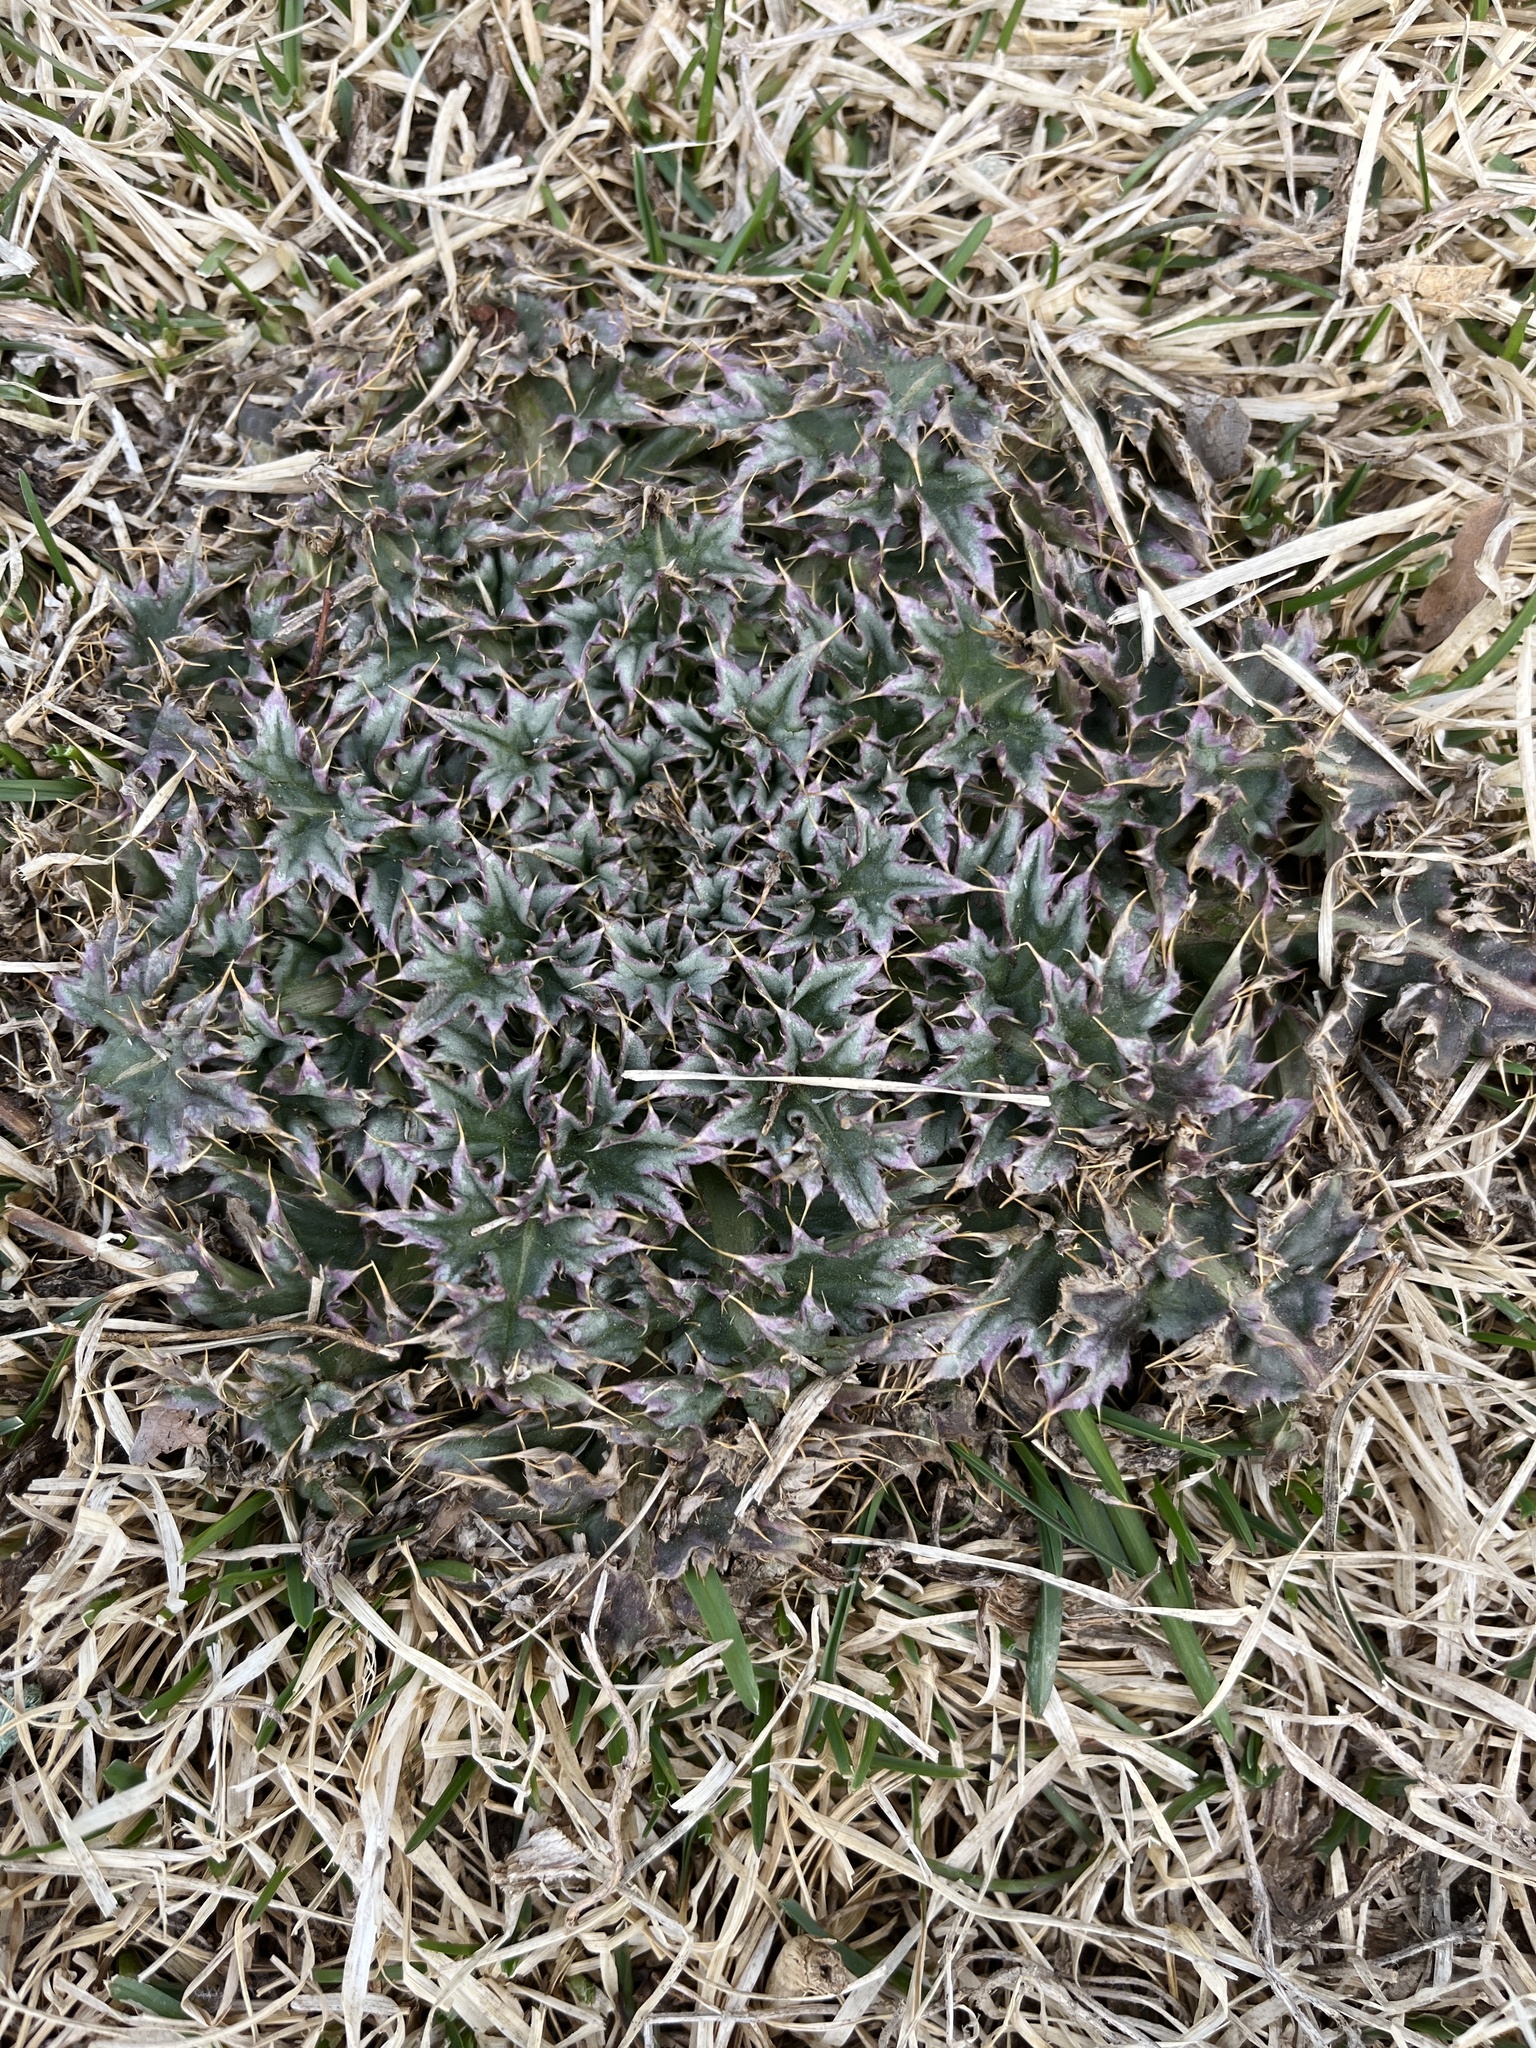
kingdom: Plantae
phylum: Tracheophyta
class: Magnoliopsida
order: Asterales
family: Asteraceae
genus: Carduus
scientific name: Carduus nutans
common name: Musk thistle
